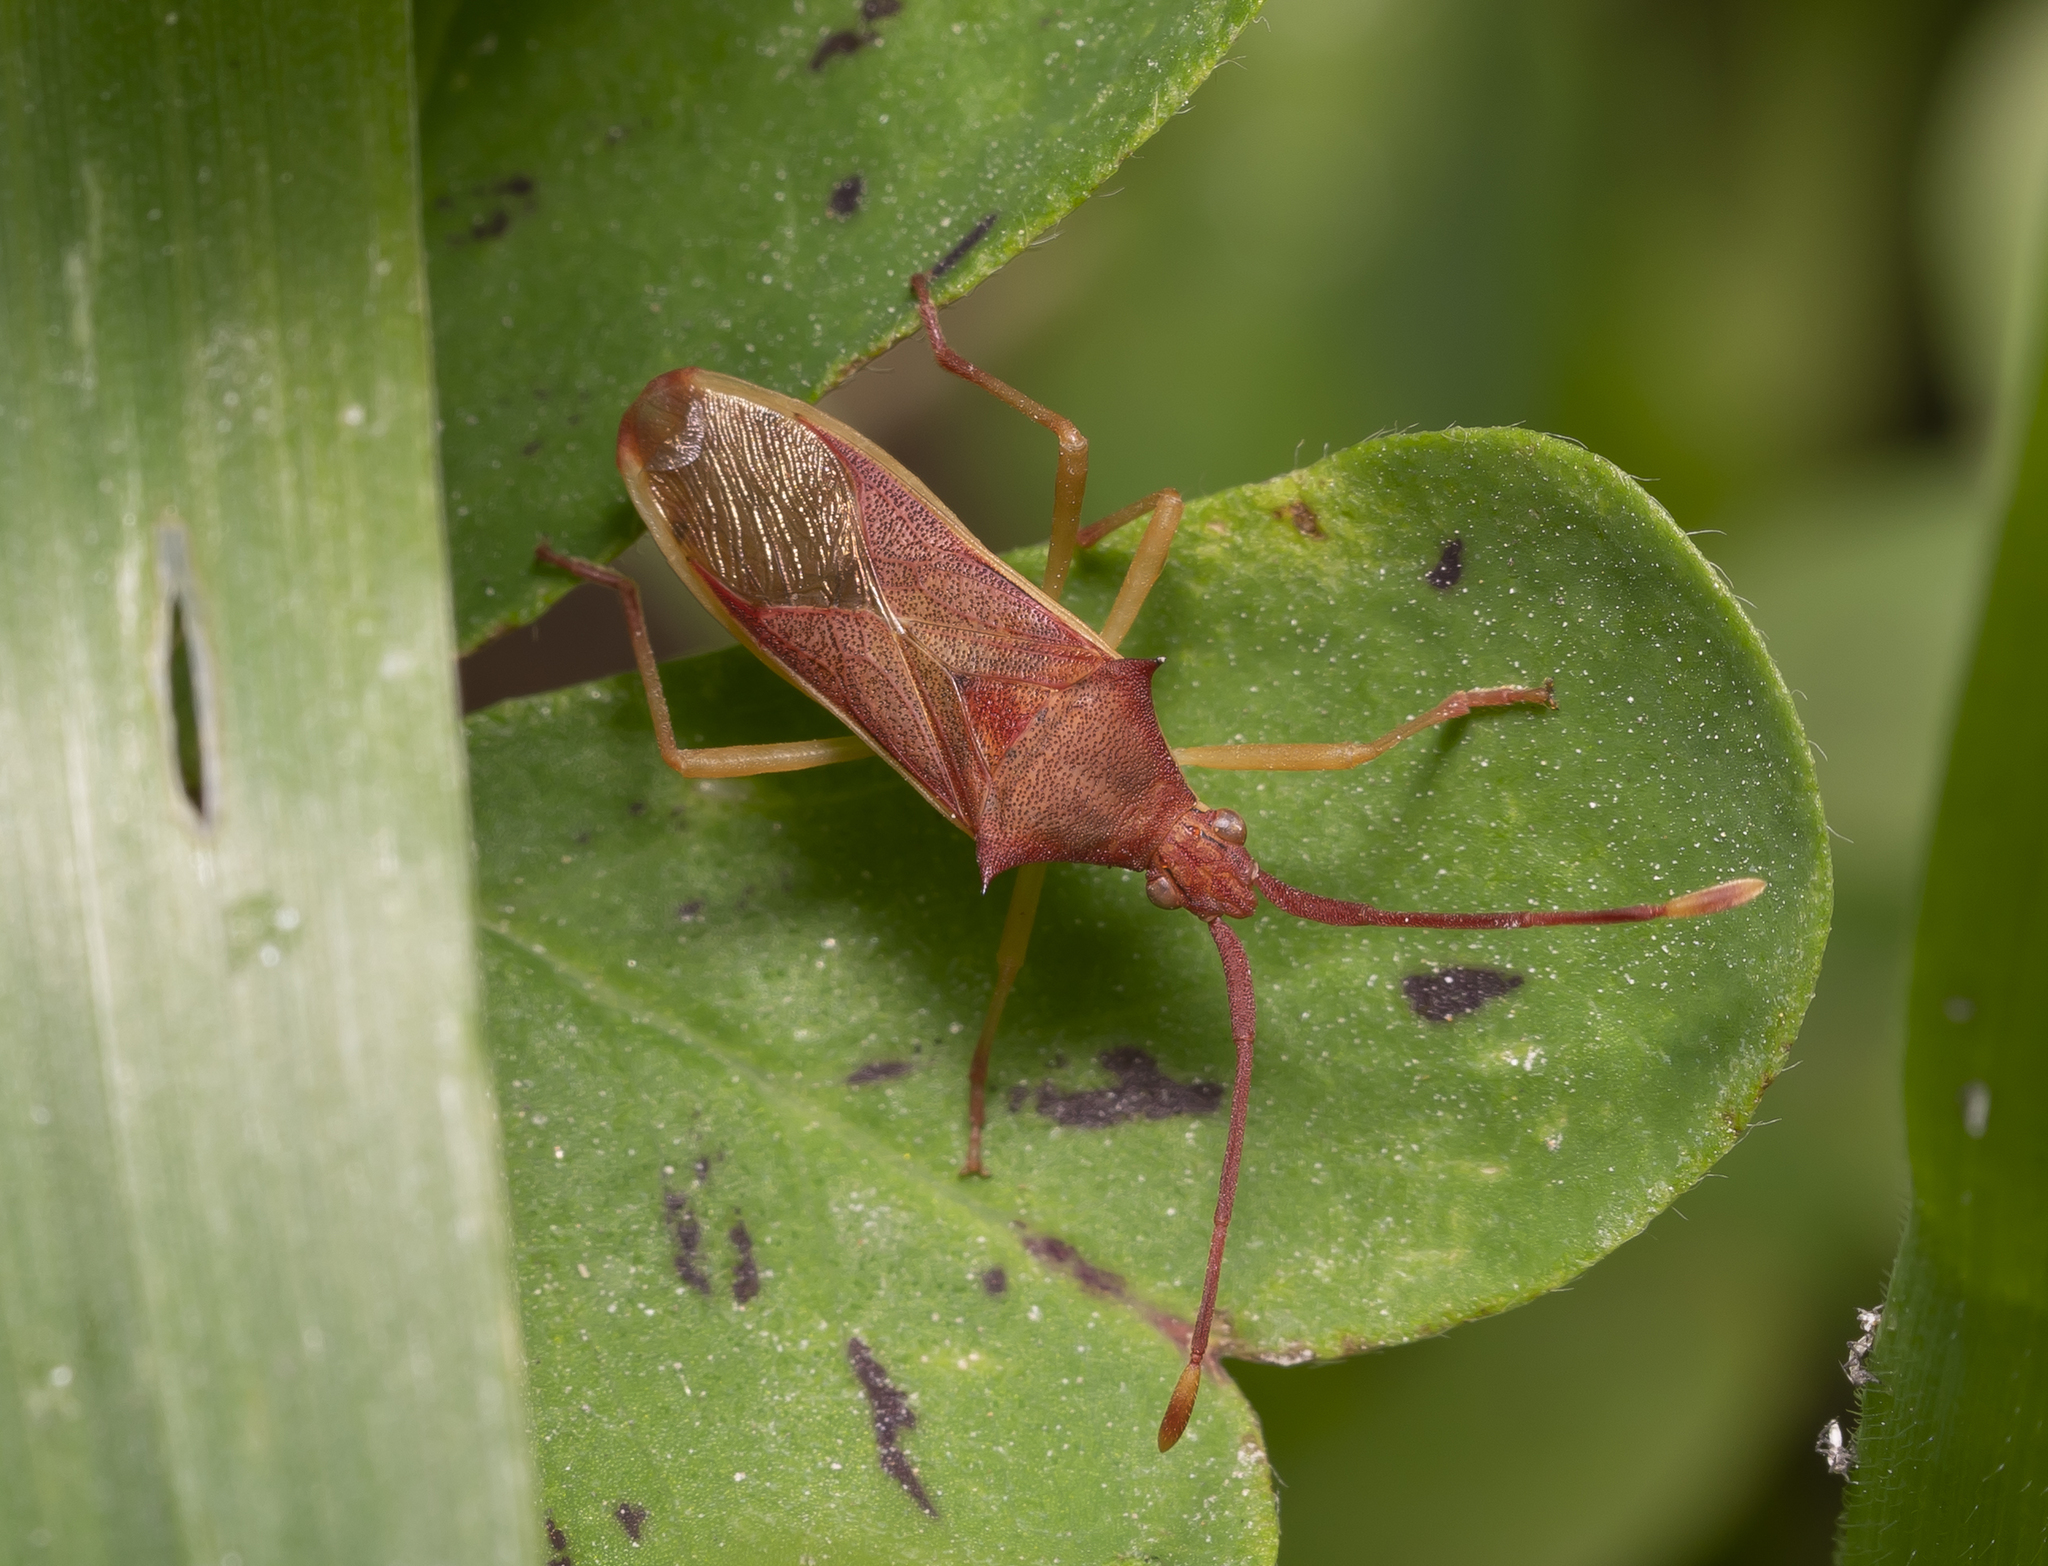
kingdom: Animalia
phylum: Arthropoda
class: Insecta
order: Hemiptera
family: Coreidae
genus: Plinachtus
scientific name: Plinachtus imitator
